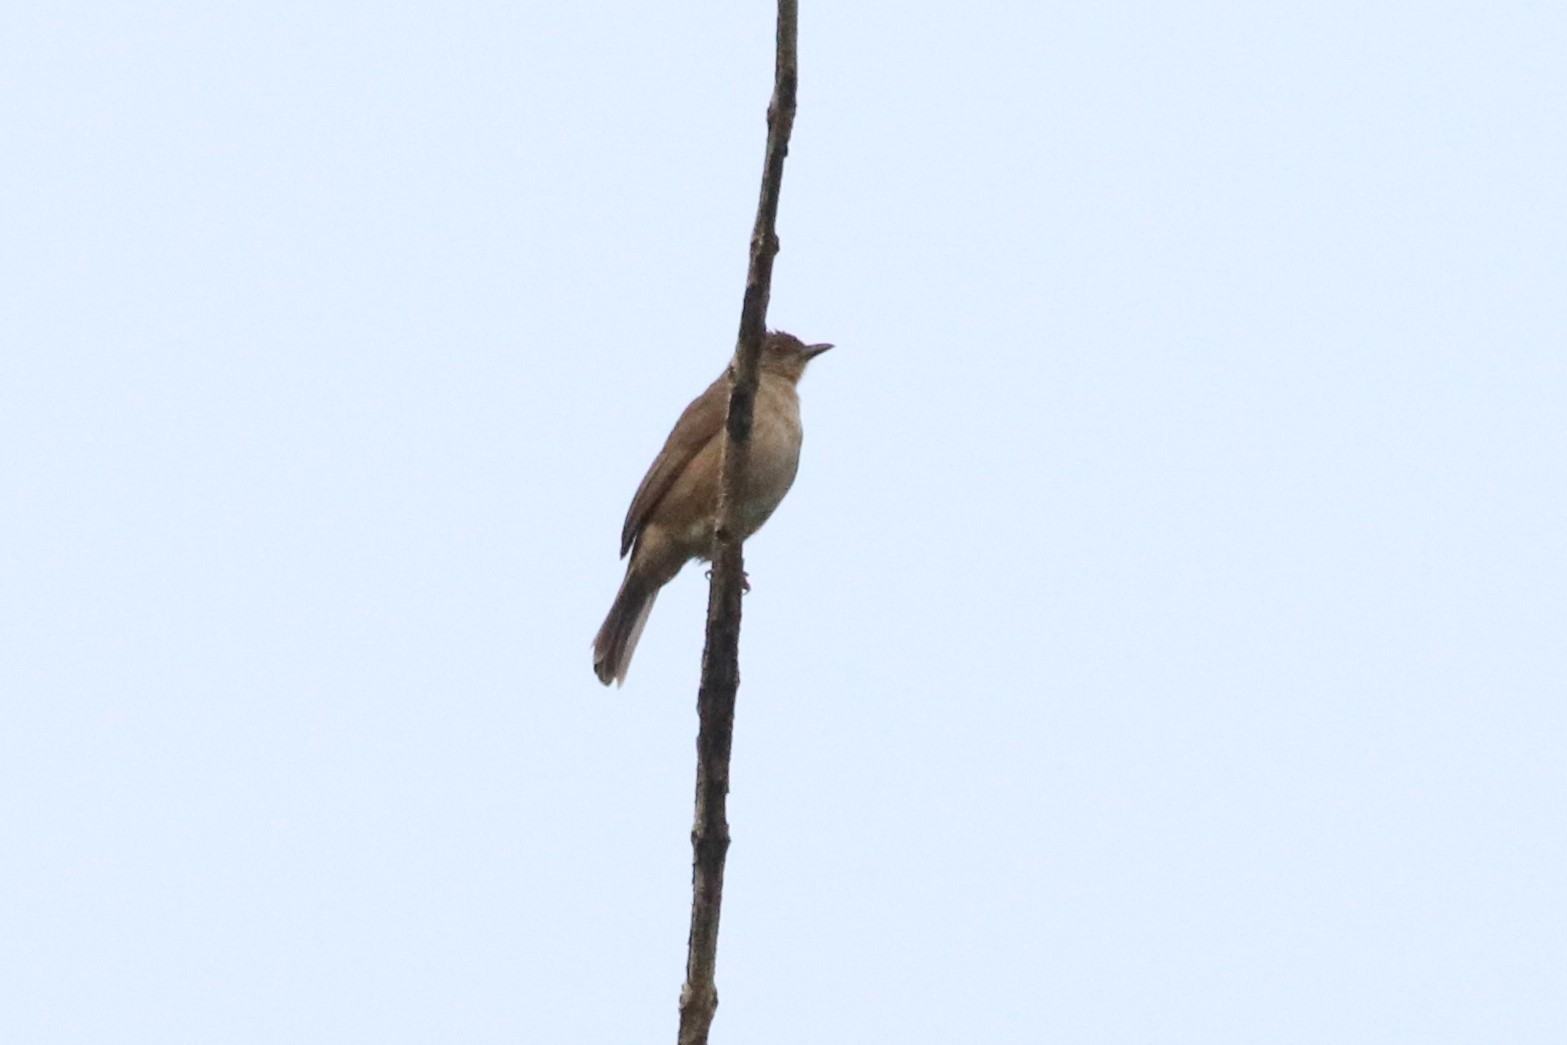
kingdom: Animalia
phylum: Chordata
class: Aves
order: Passeriformes
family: Pycnonotidae
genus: Pycnonotus
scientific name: Pycnonotus brunneus
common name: Asian red-eyed bulbul
